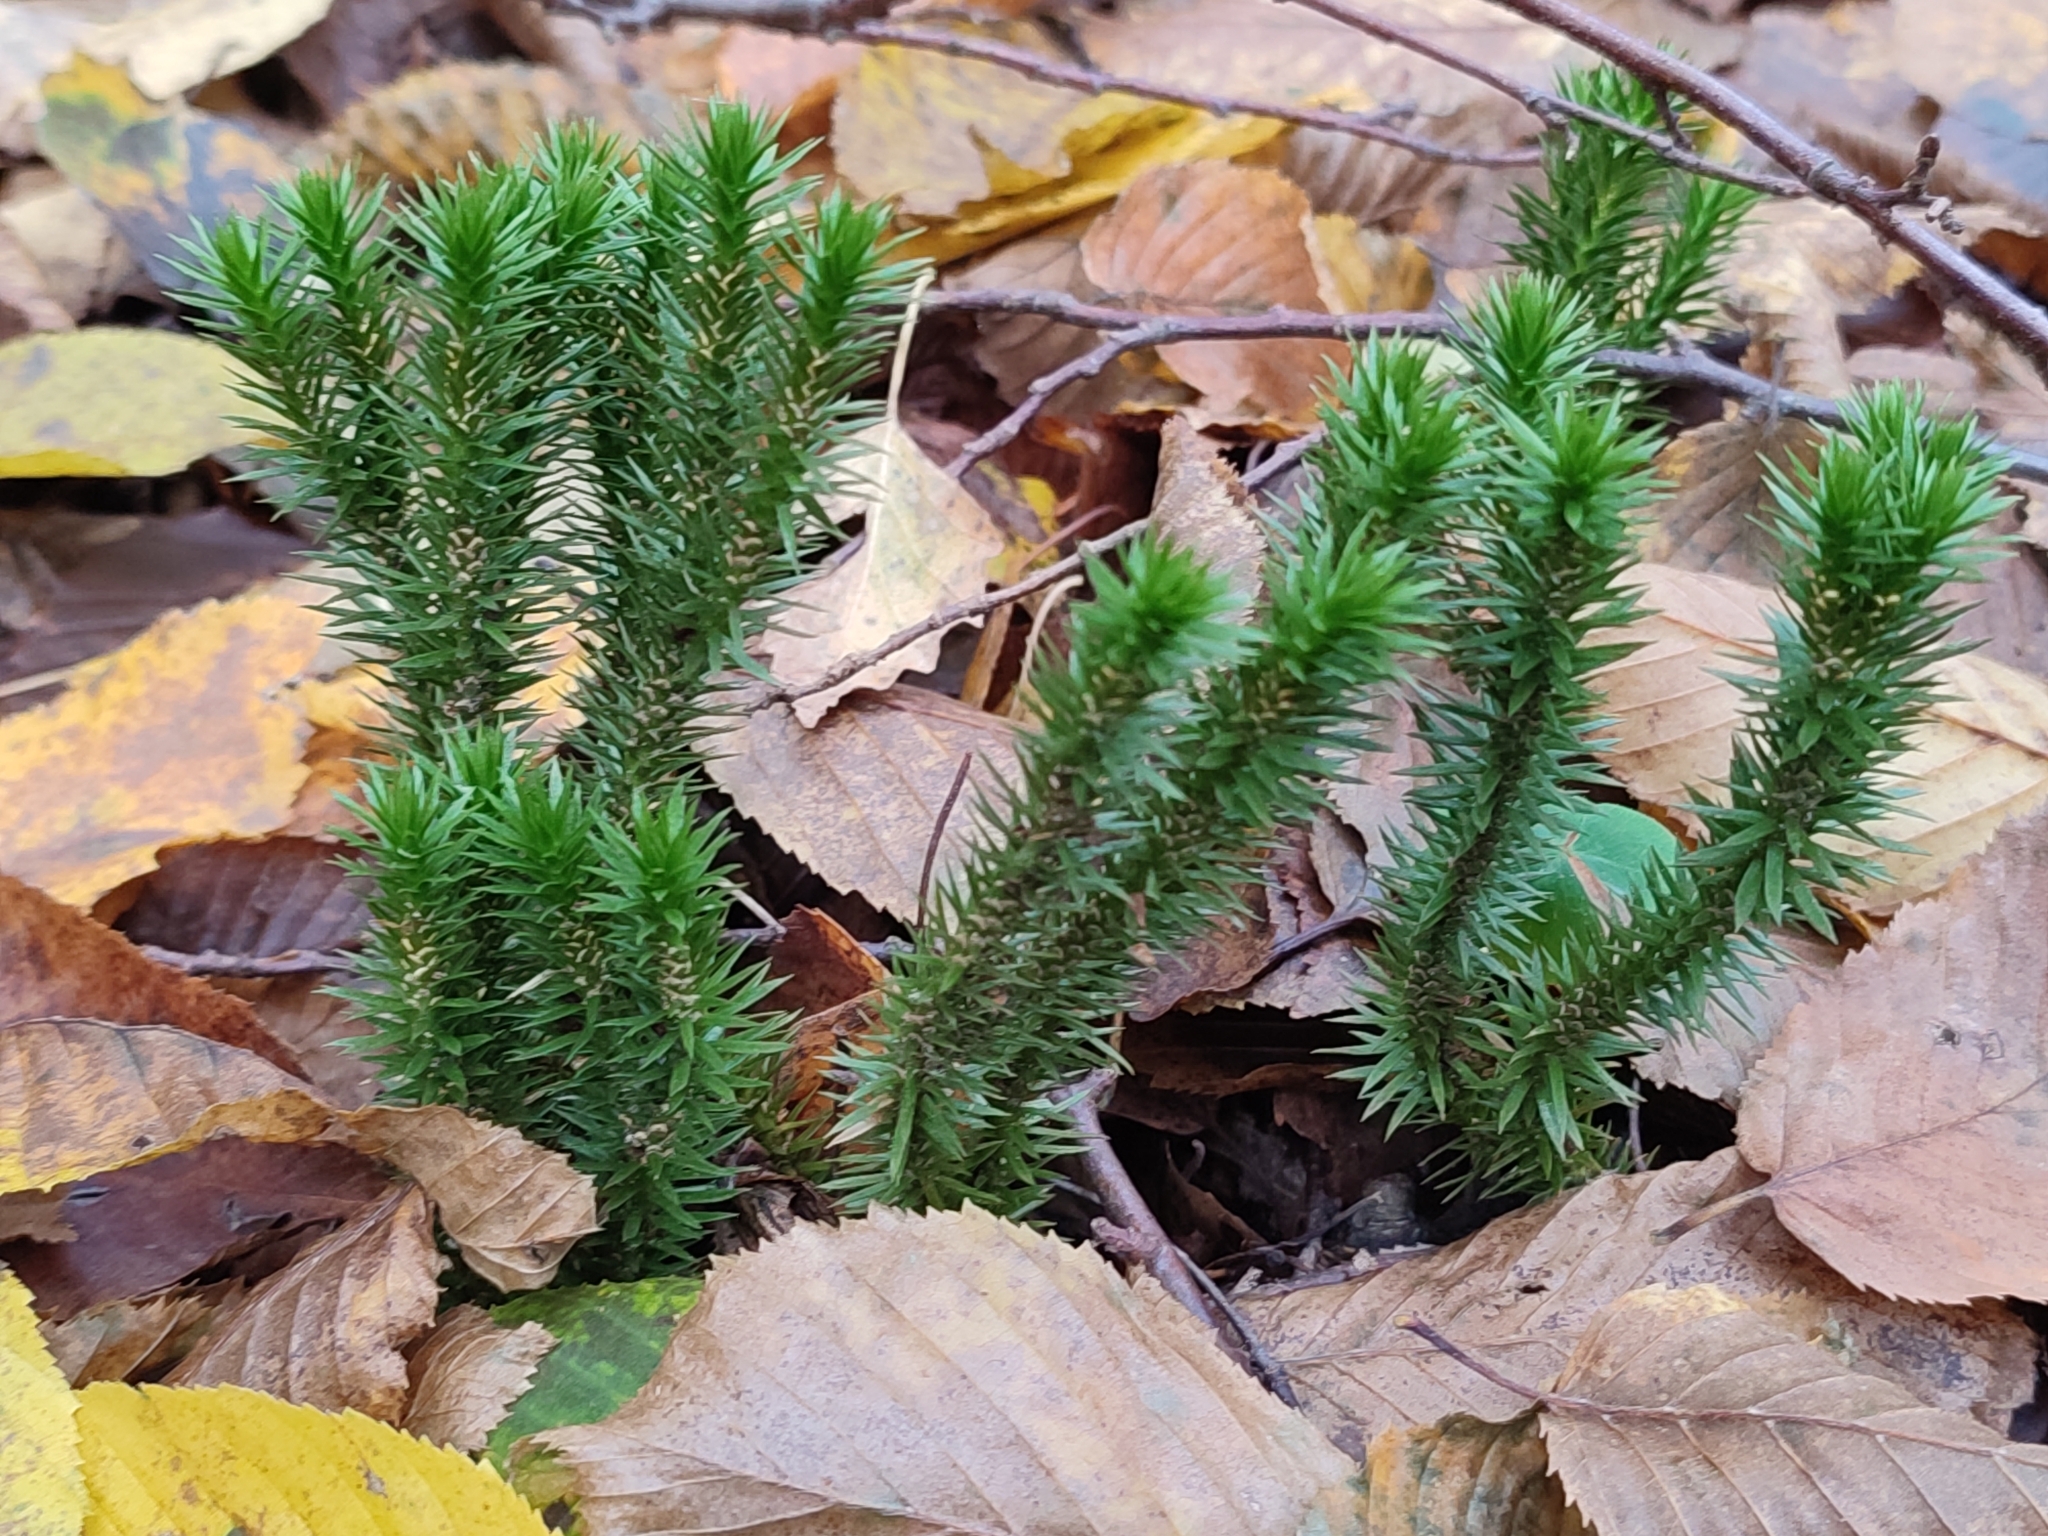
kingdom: Plantae
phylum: Tracheophyta
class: Lycopodiopsida
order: Lycopodiales
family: Lycopodiaceae
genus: Huperzia
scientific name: Huperzia selago
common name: Northern firmoss
